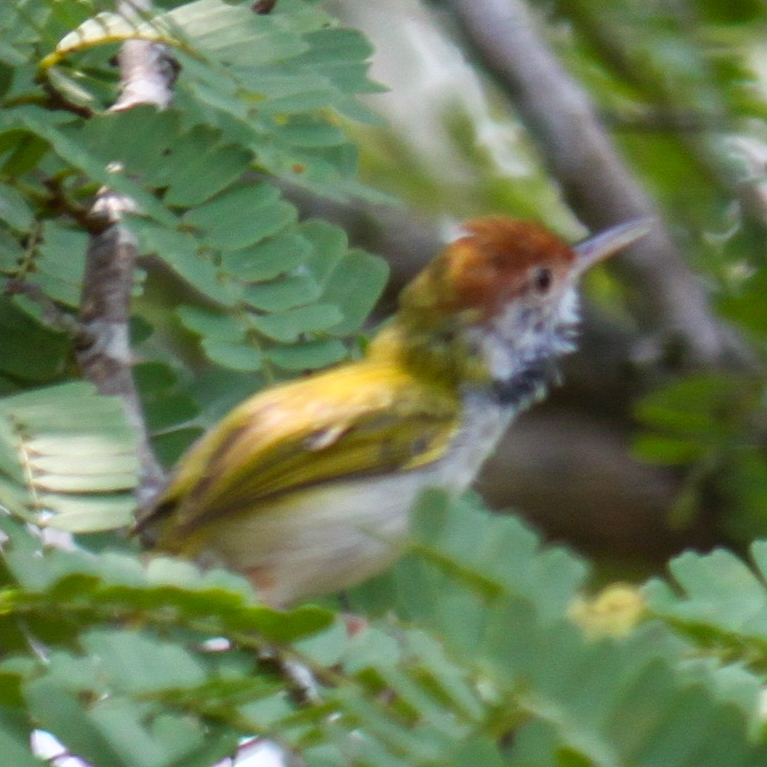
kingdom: Animalia
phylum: Chordata
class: Aves
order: Passeriformes
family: Cisticolidae
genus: Orthotomus
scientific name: Orthotomus atrogularis
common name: Dark-necked tailorbird
